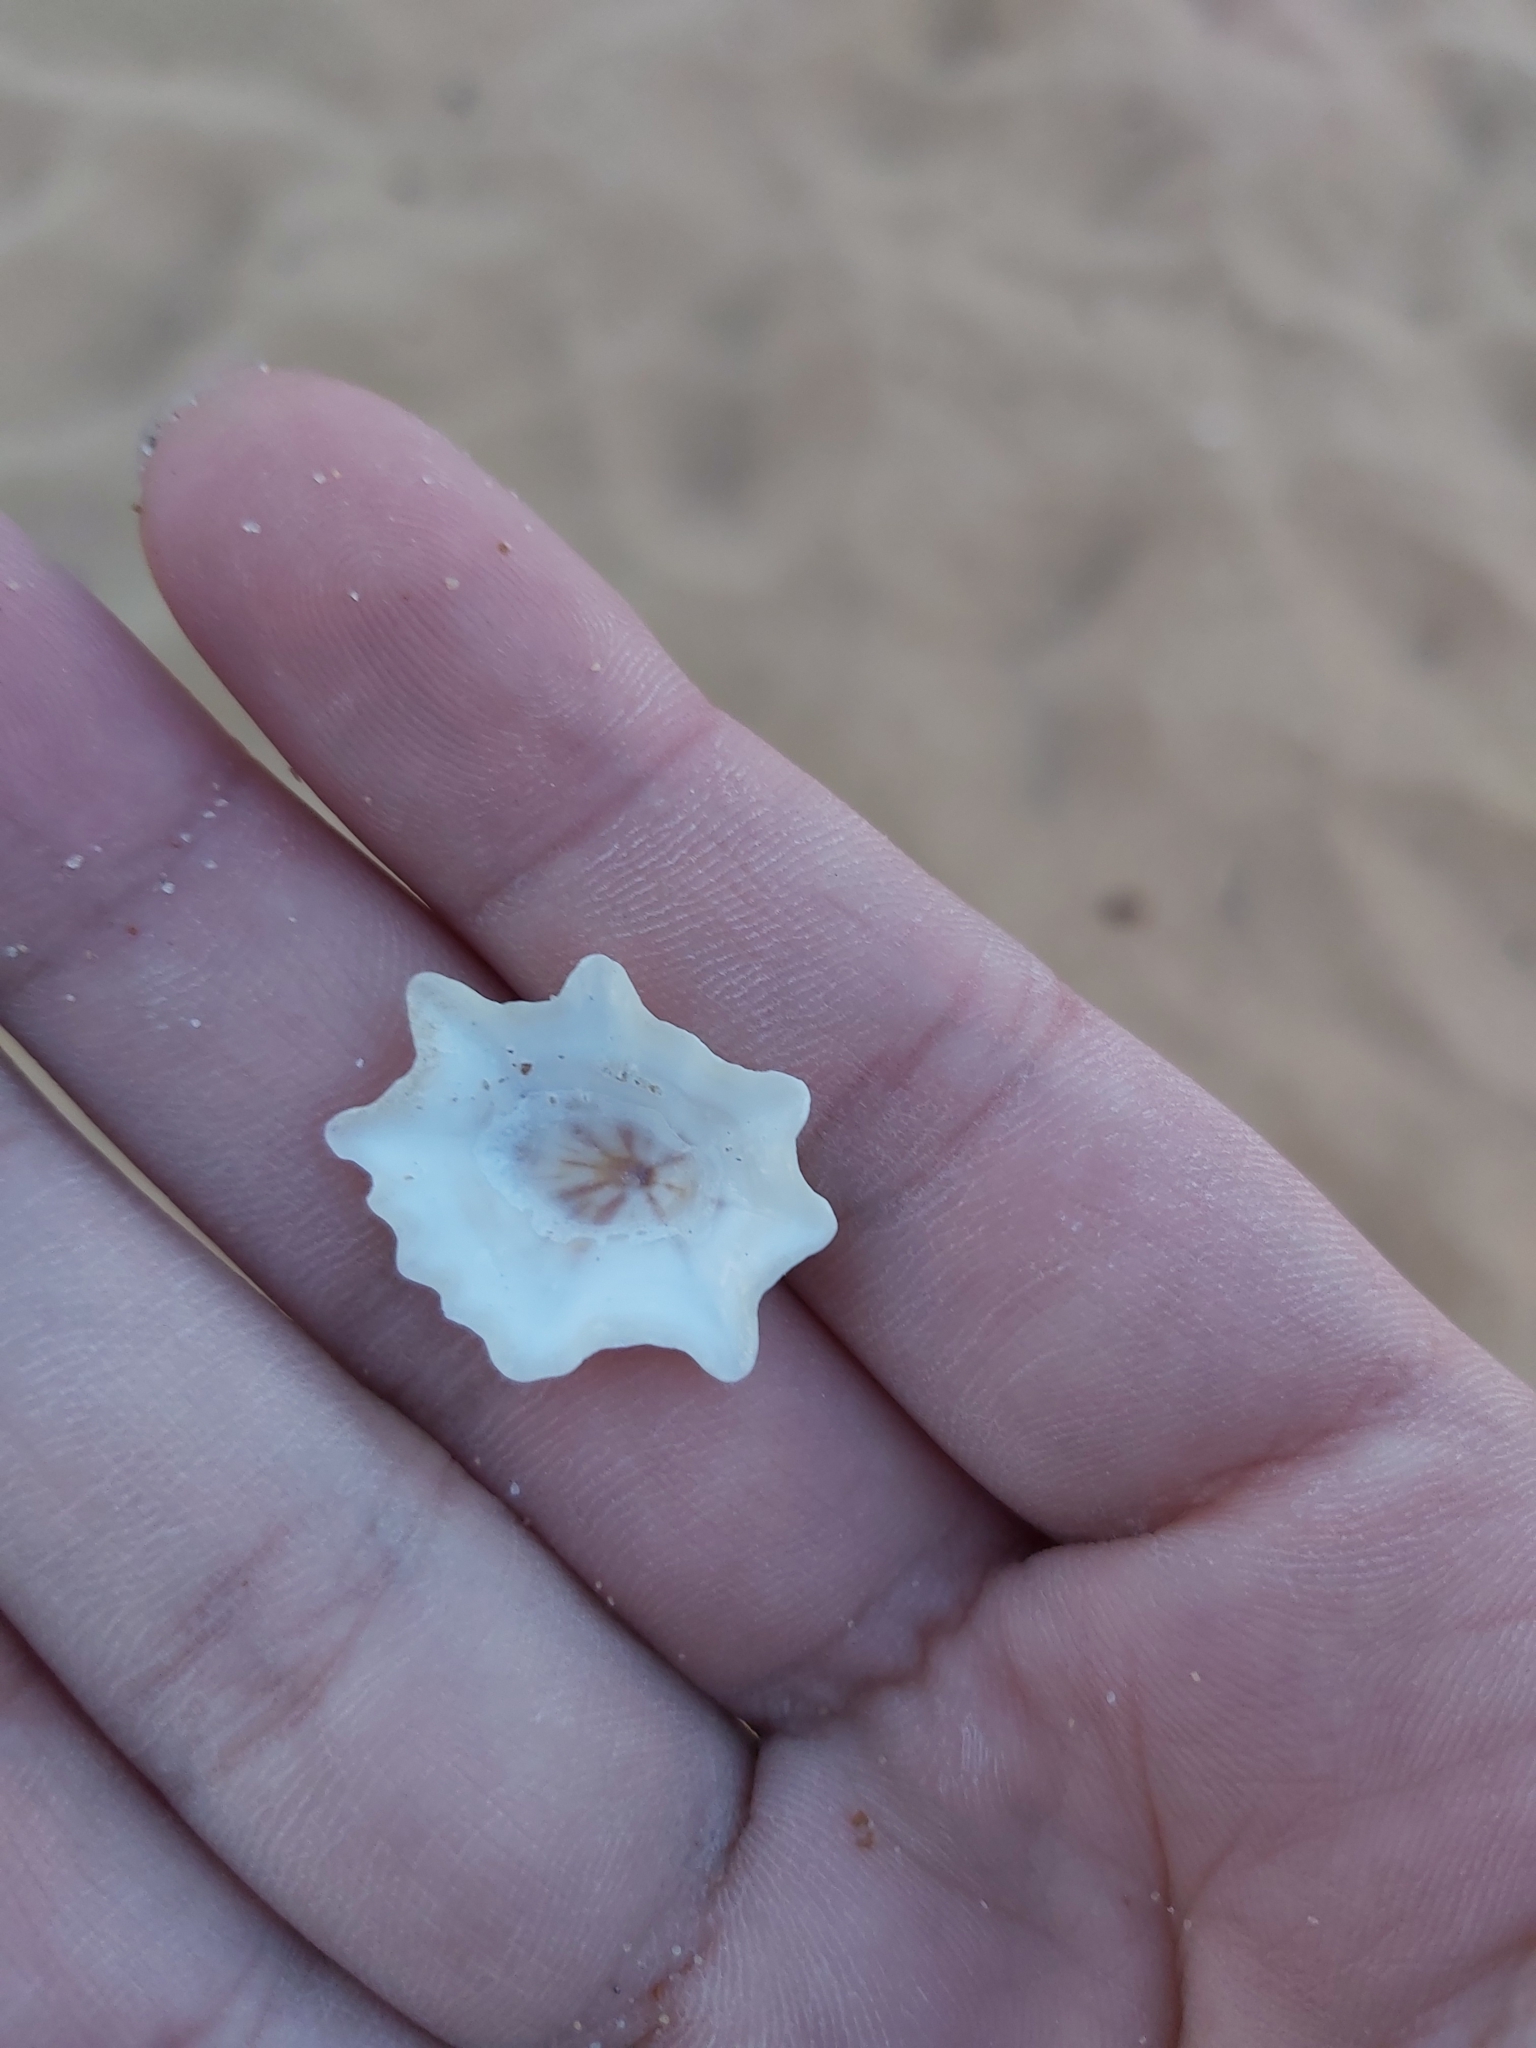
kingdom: Animalia
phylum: Mollusca
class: Gastropoda
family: Patellidae
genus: Scutellastra
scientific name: Scutellastra chapmani
